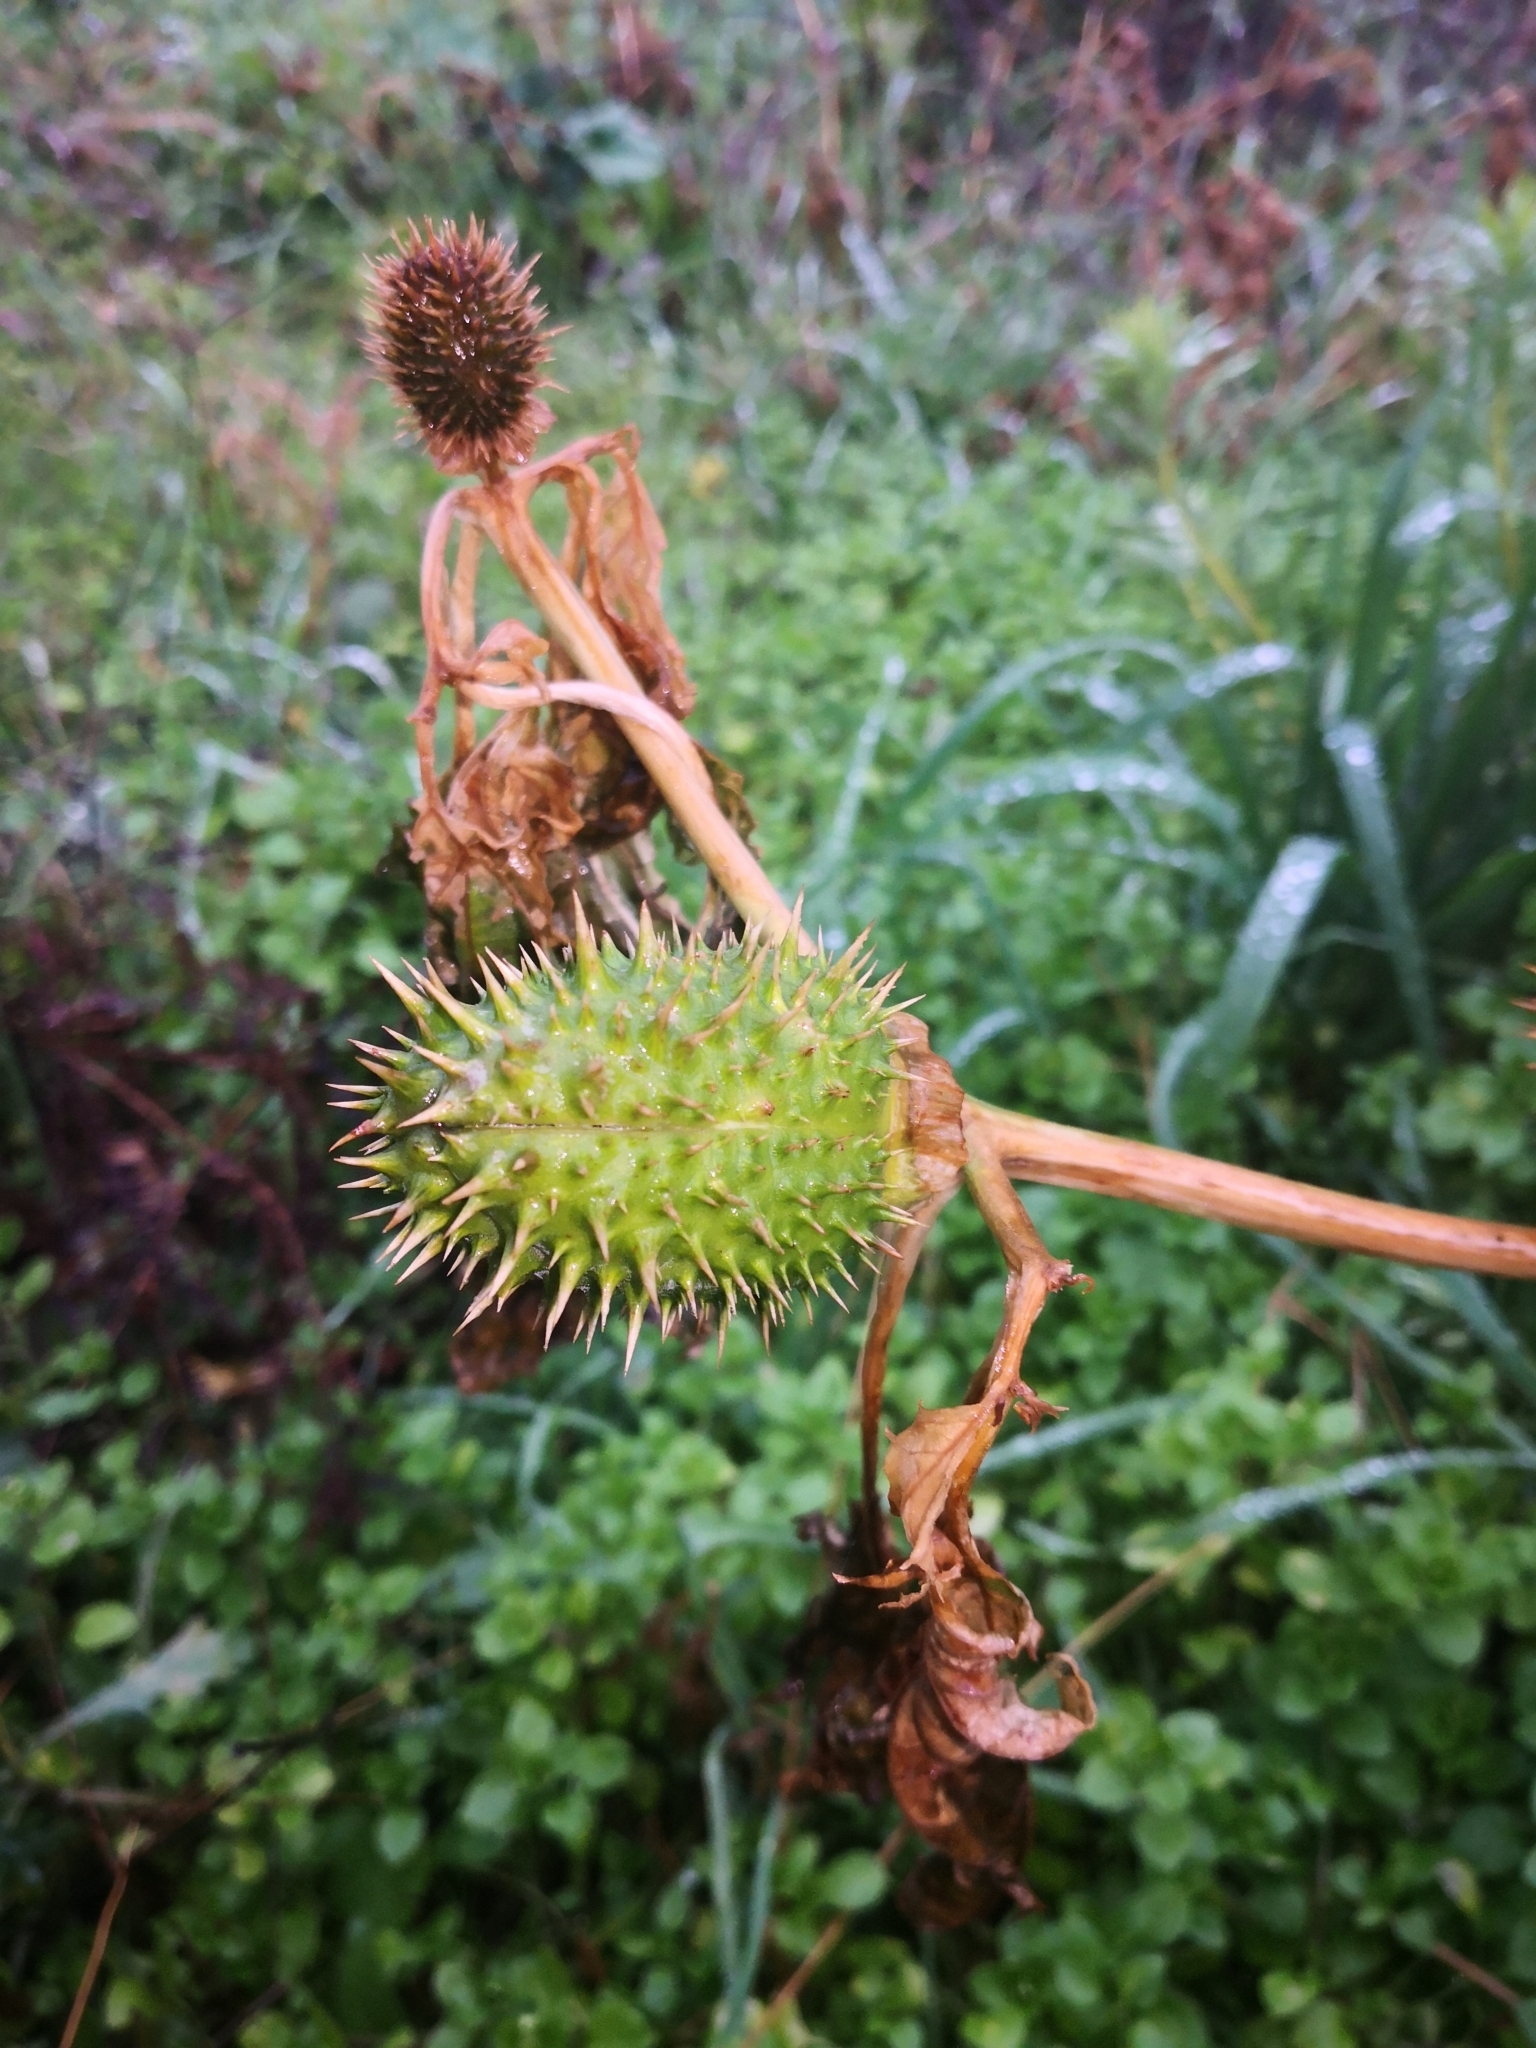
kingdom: Plantae
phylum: Tracheophyta
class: Magnoliopsida
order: Solanales
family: Solanaceae
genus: Datura
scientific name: Datura stramonium
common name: Thorn-apple
